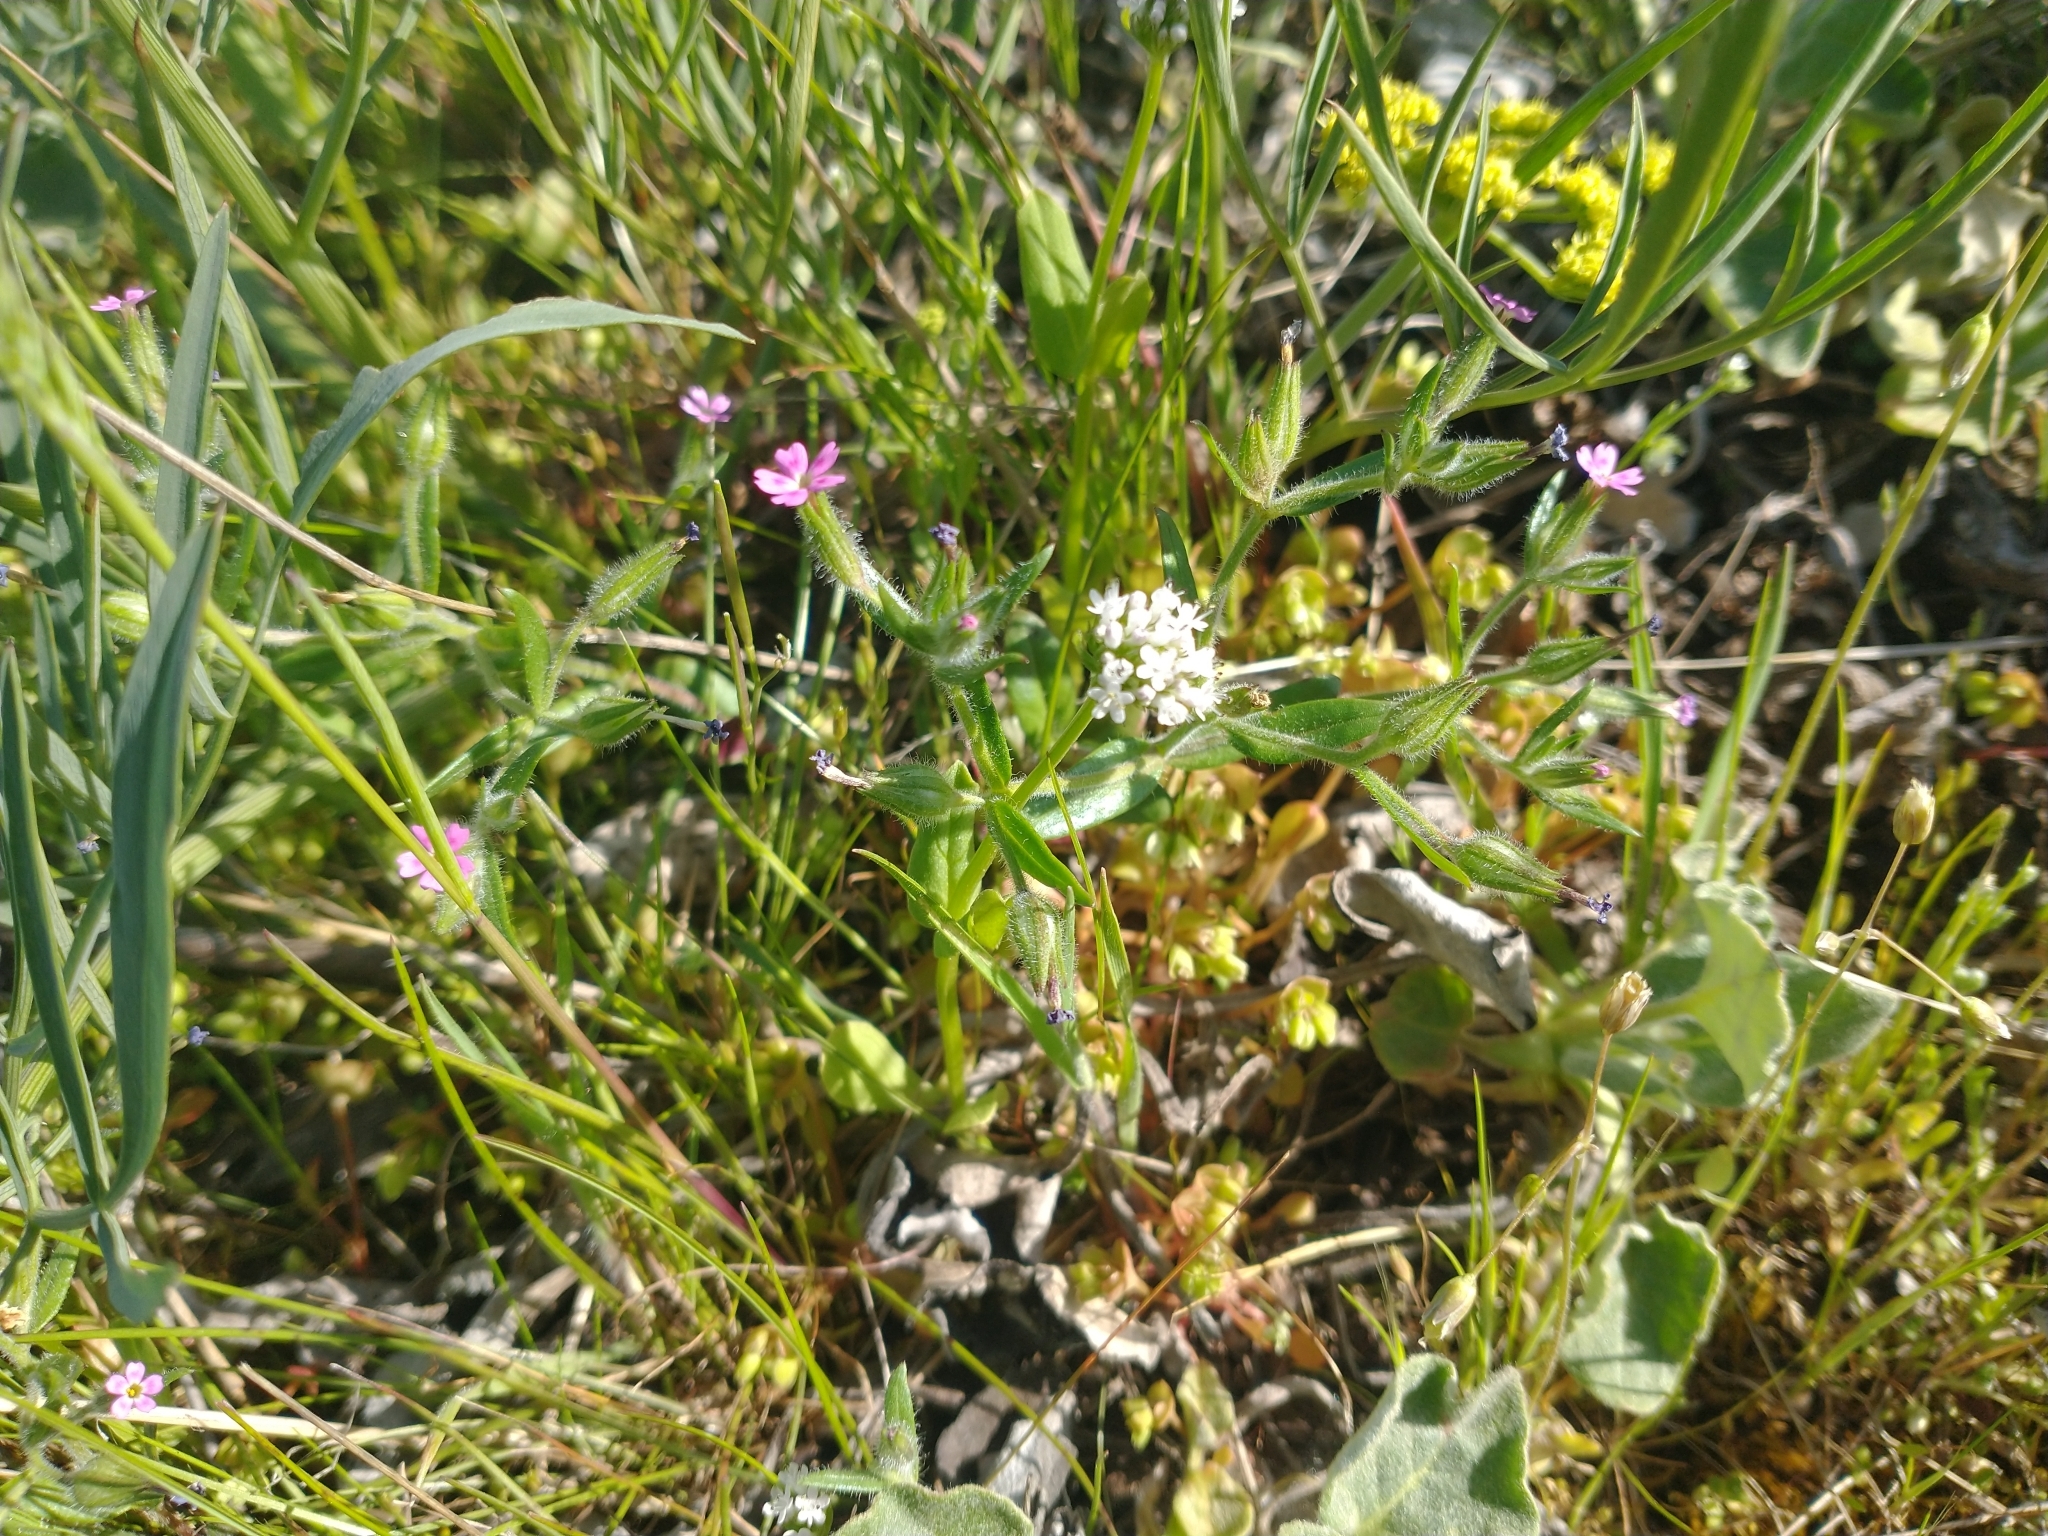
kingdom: Plantae
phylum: Tracheophyta
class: Magnoliopsida
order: Ericales
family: Polemoniaceae
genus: Phlox
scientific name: Phlox gracilis
